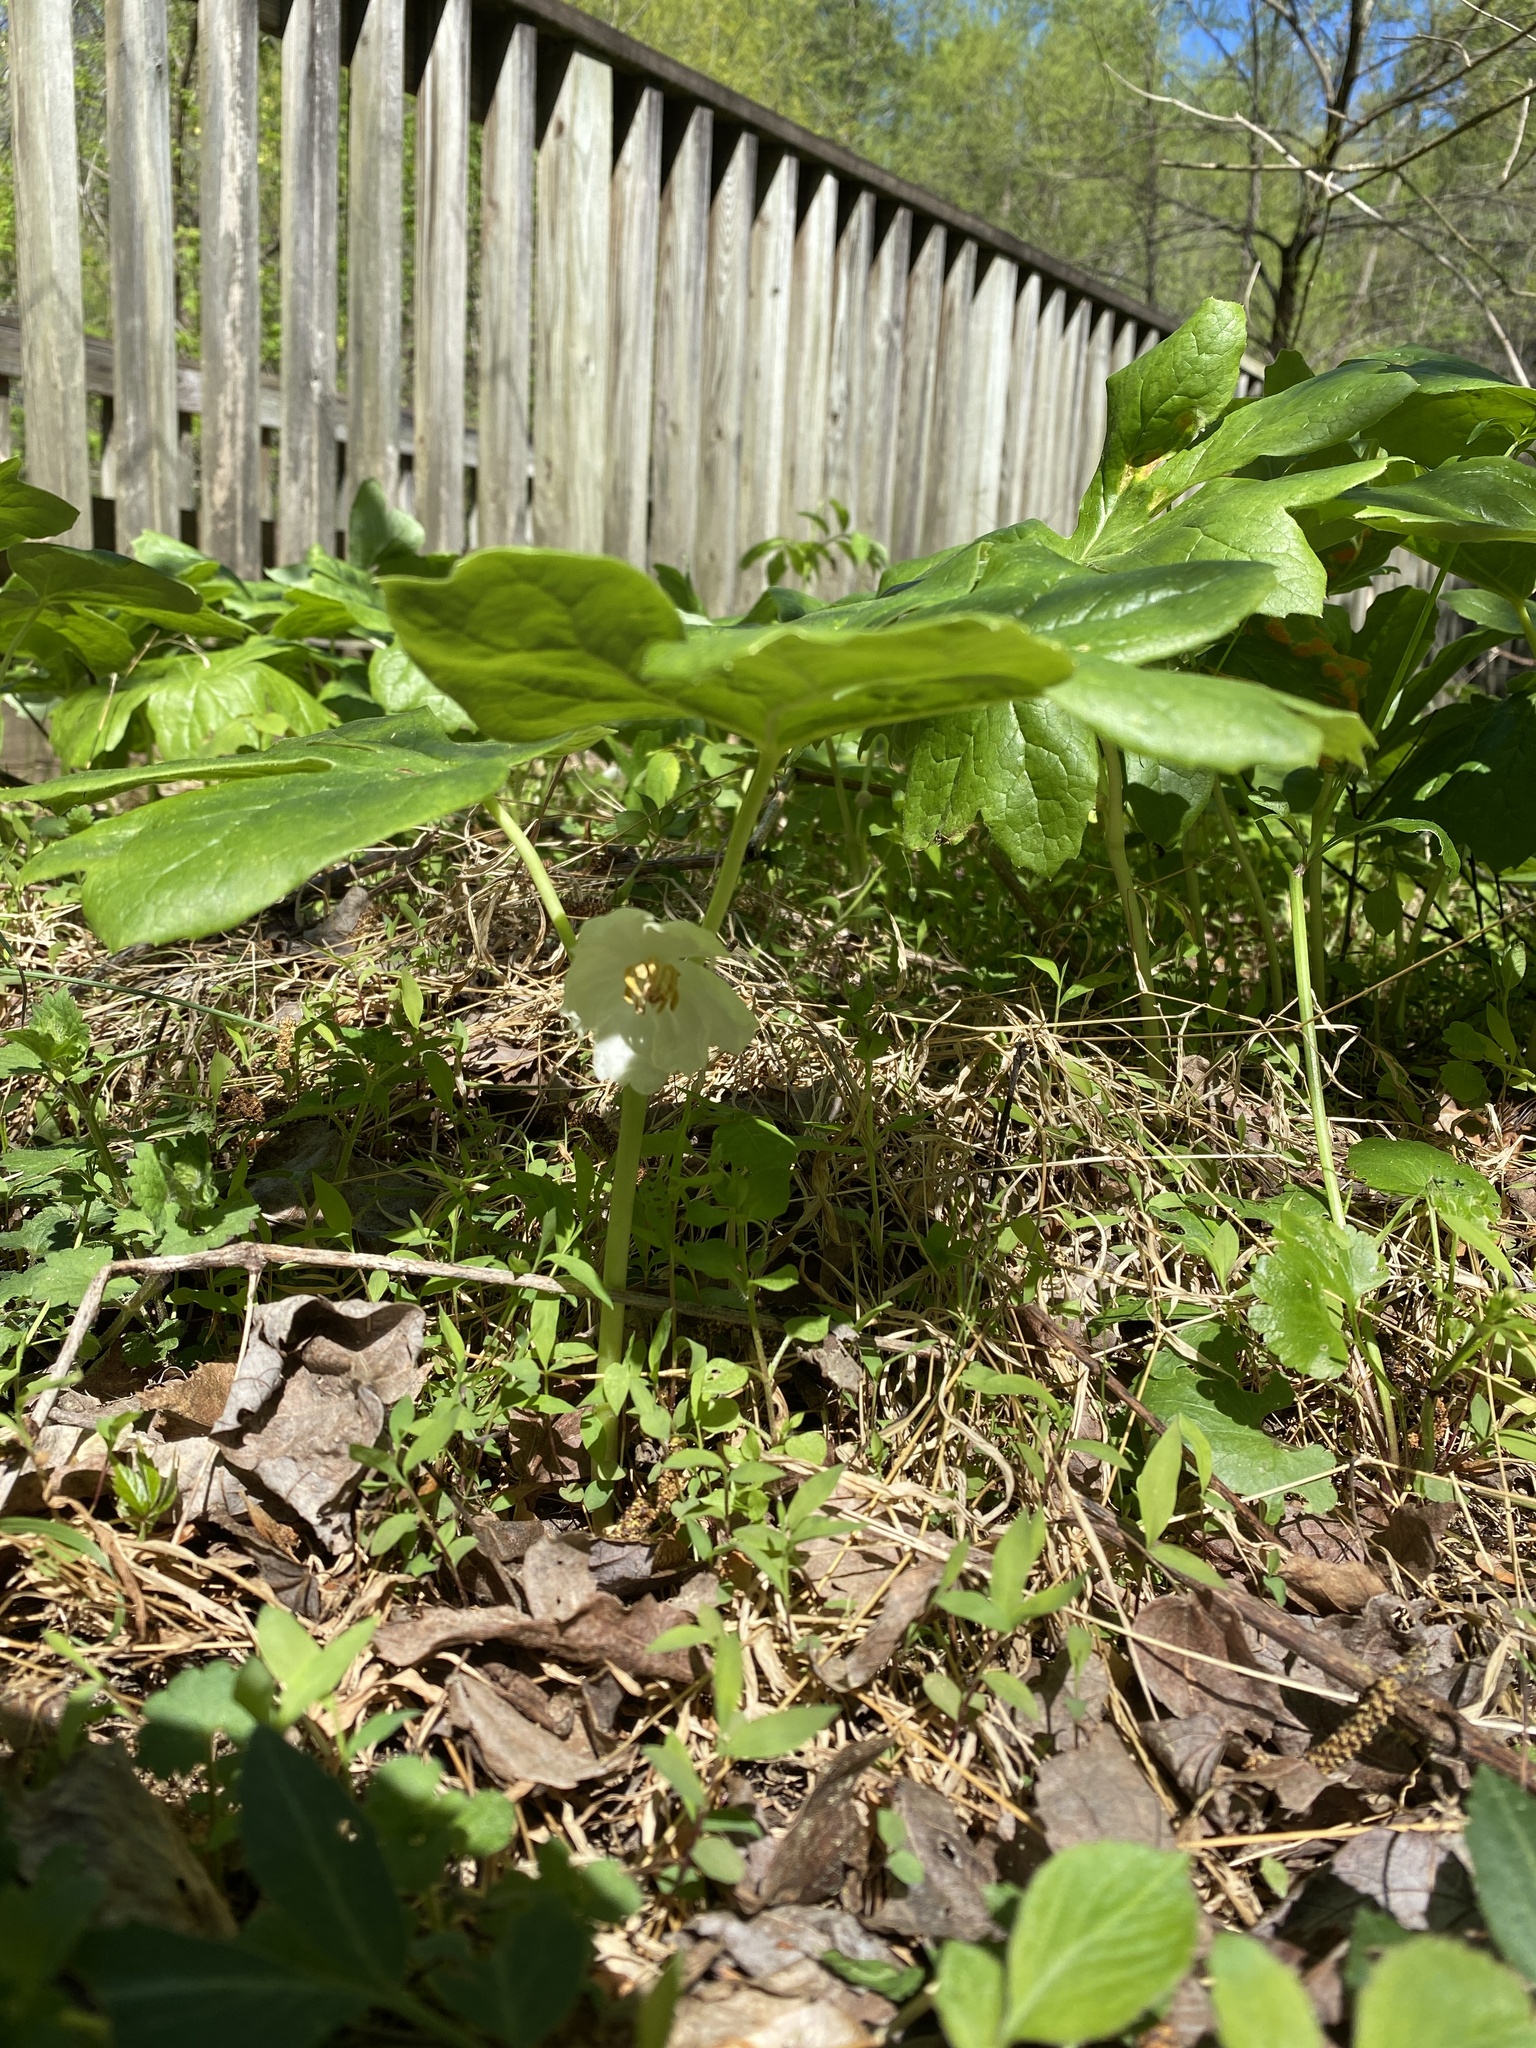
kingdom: Plantae
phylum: Tracheophyta
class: Magnoliopsida
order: Ranunculales
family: Berberidaceae
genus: Podophyllum
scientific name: Podophyllum peltatum
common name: Wild mandrake
